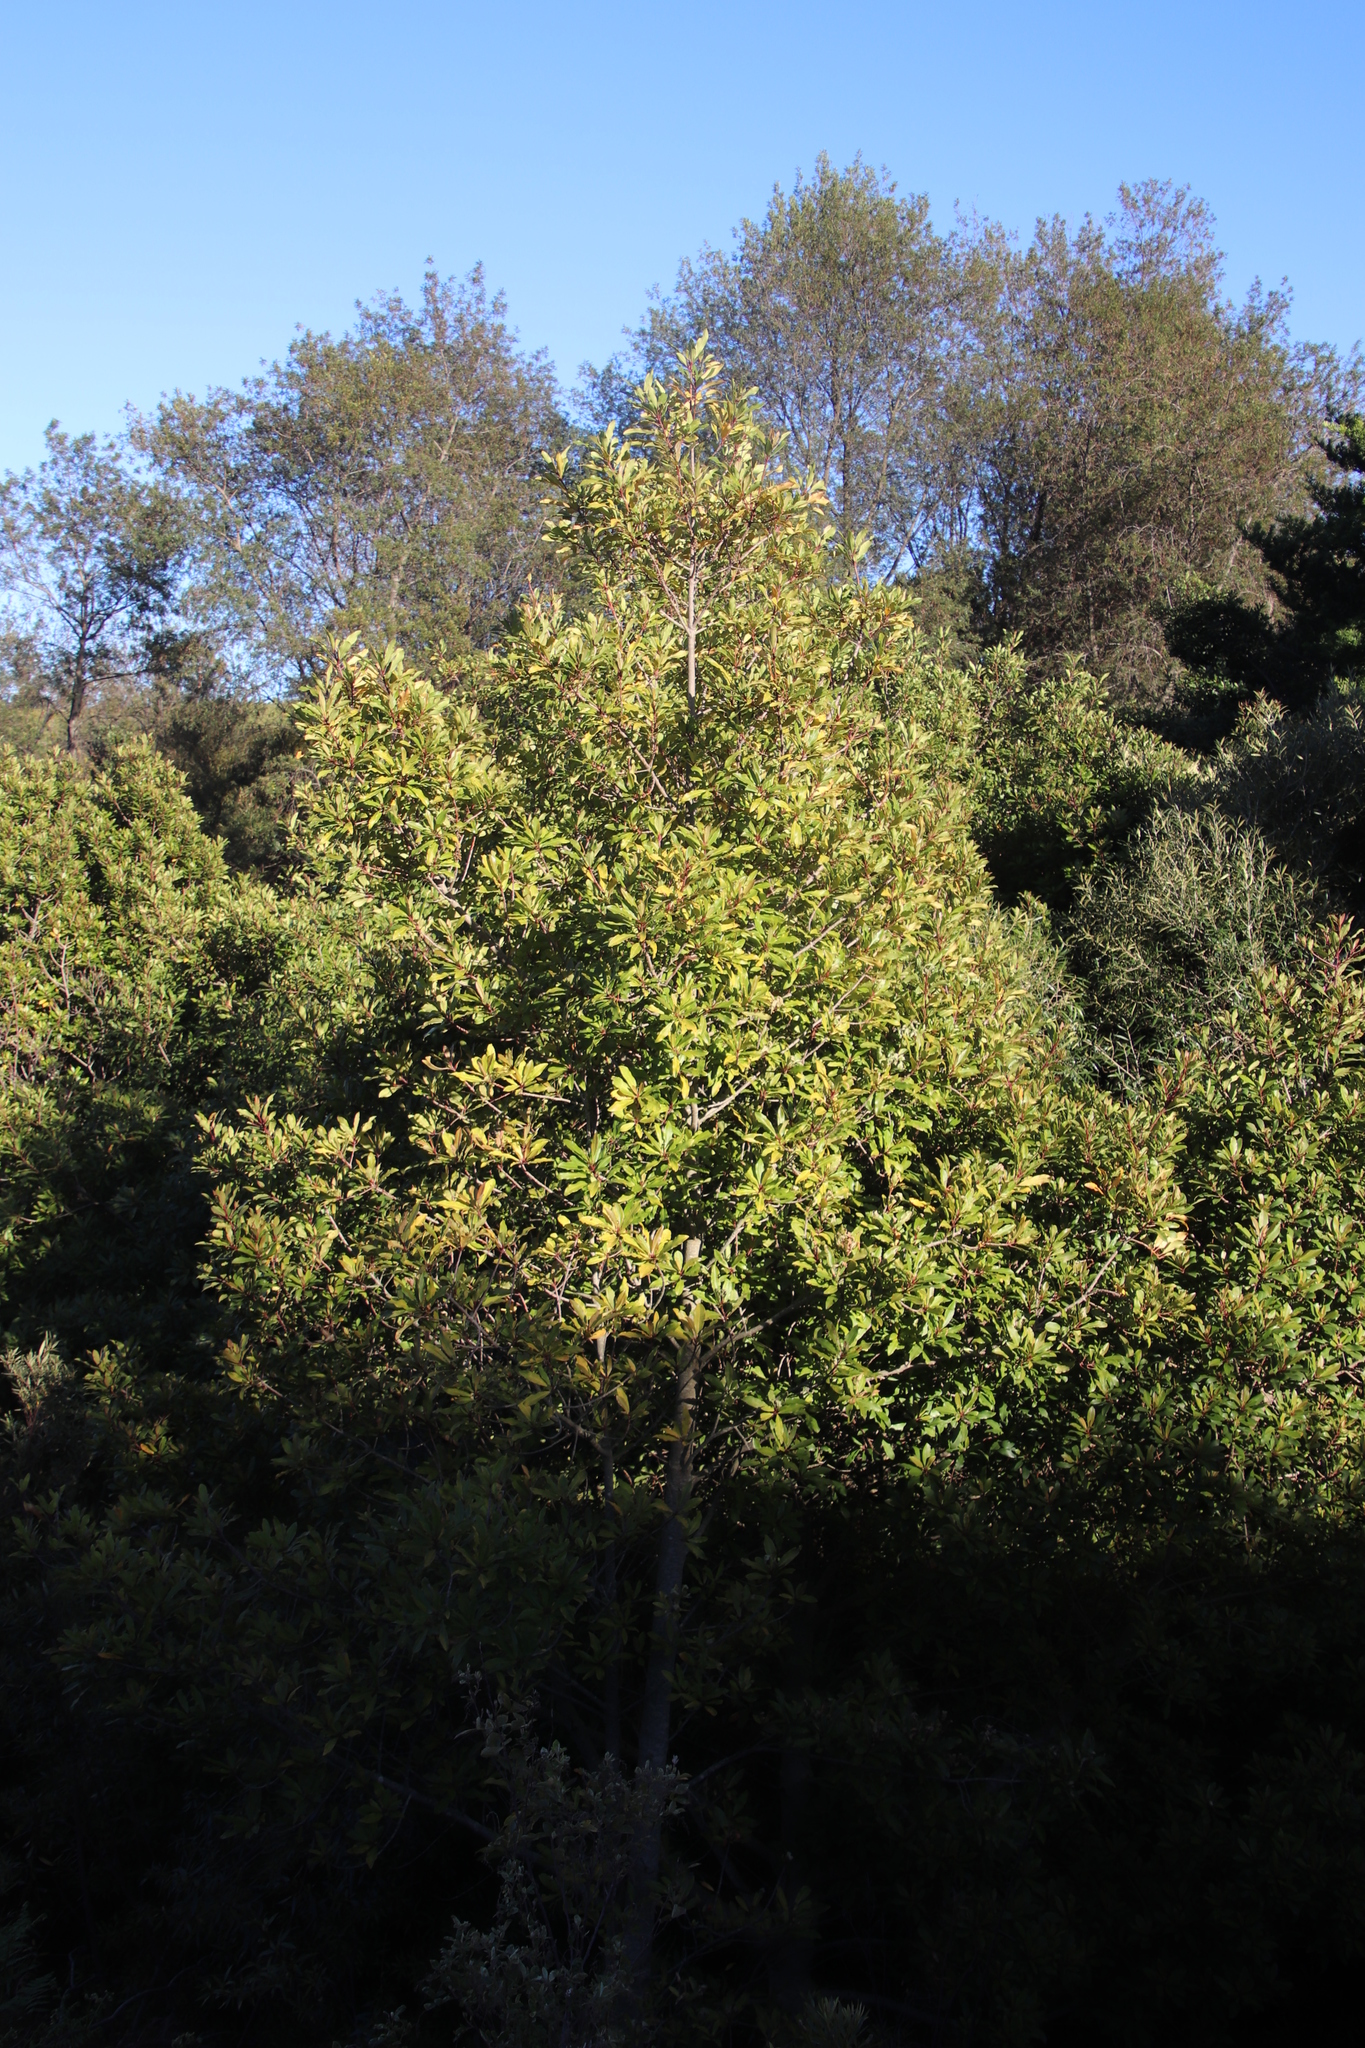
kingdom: Plantae
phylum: Tracheophyta
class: Magnoliopsida
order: Ericales
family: Primulaceae
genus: Myrsine
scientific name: Myrsine melanophloeos
